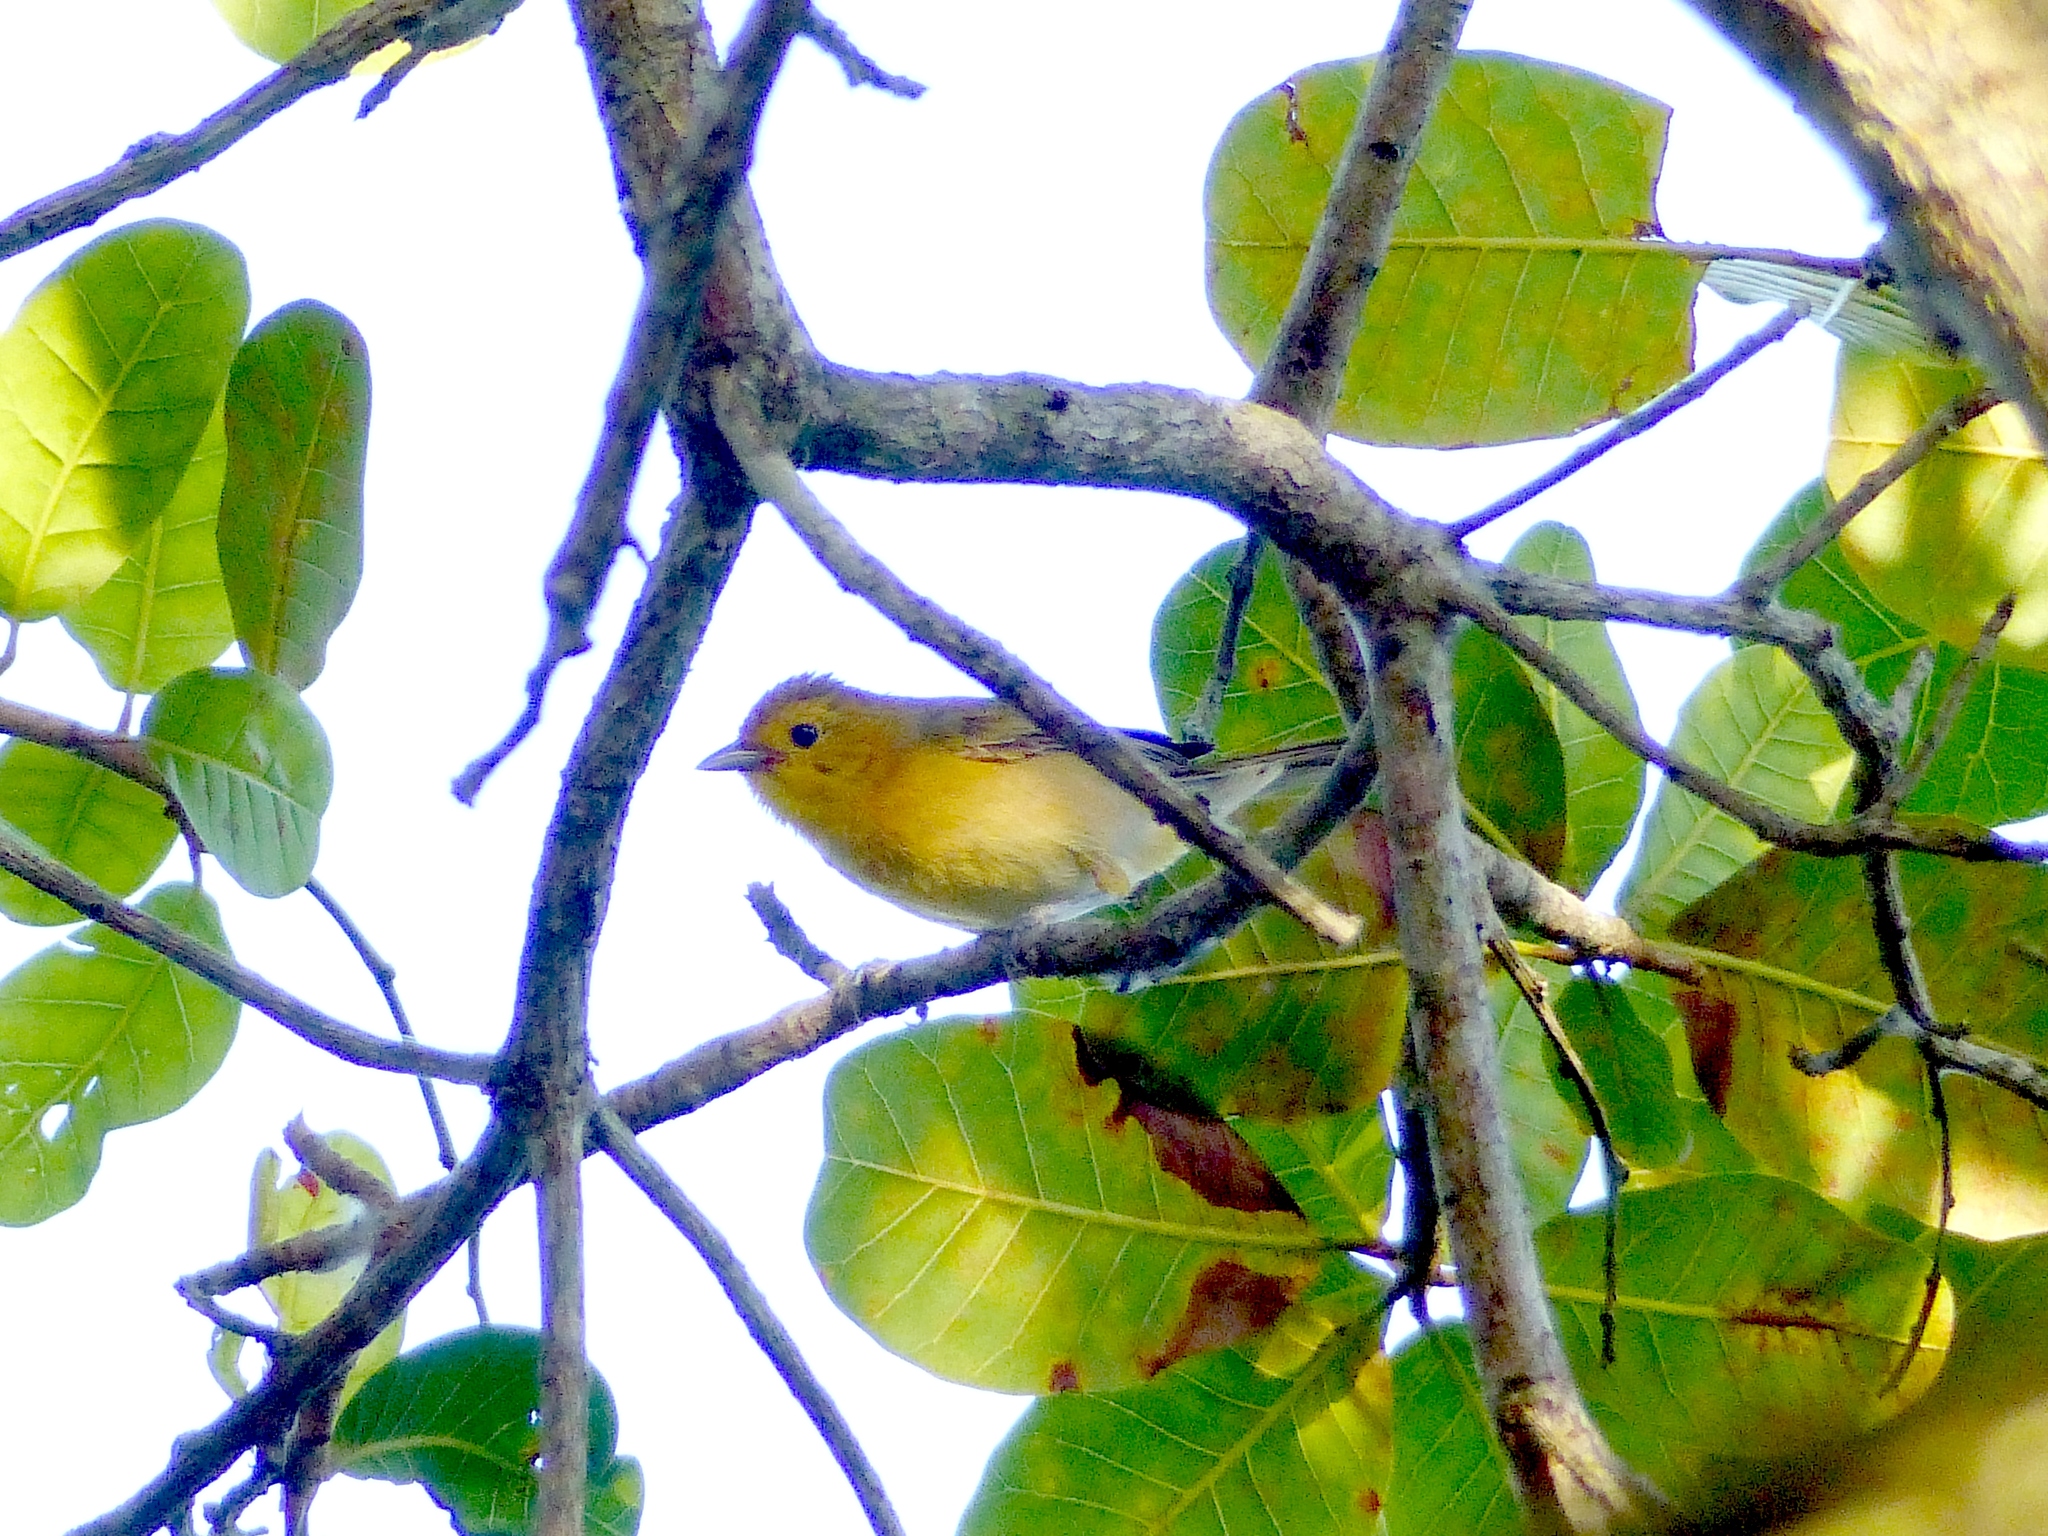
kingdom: Animalia
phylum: Chordata
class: Aves
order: Passeriformes
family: Thraupidae
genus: Thlypopsis
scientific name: Thlypopsis sordida
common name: Orange-headed tanager
